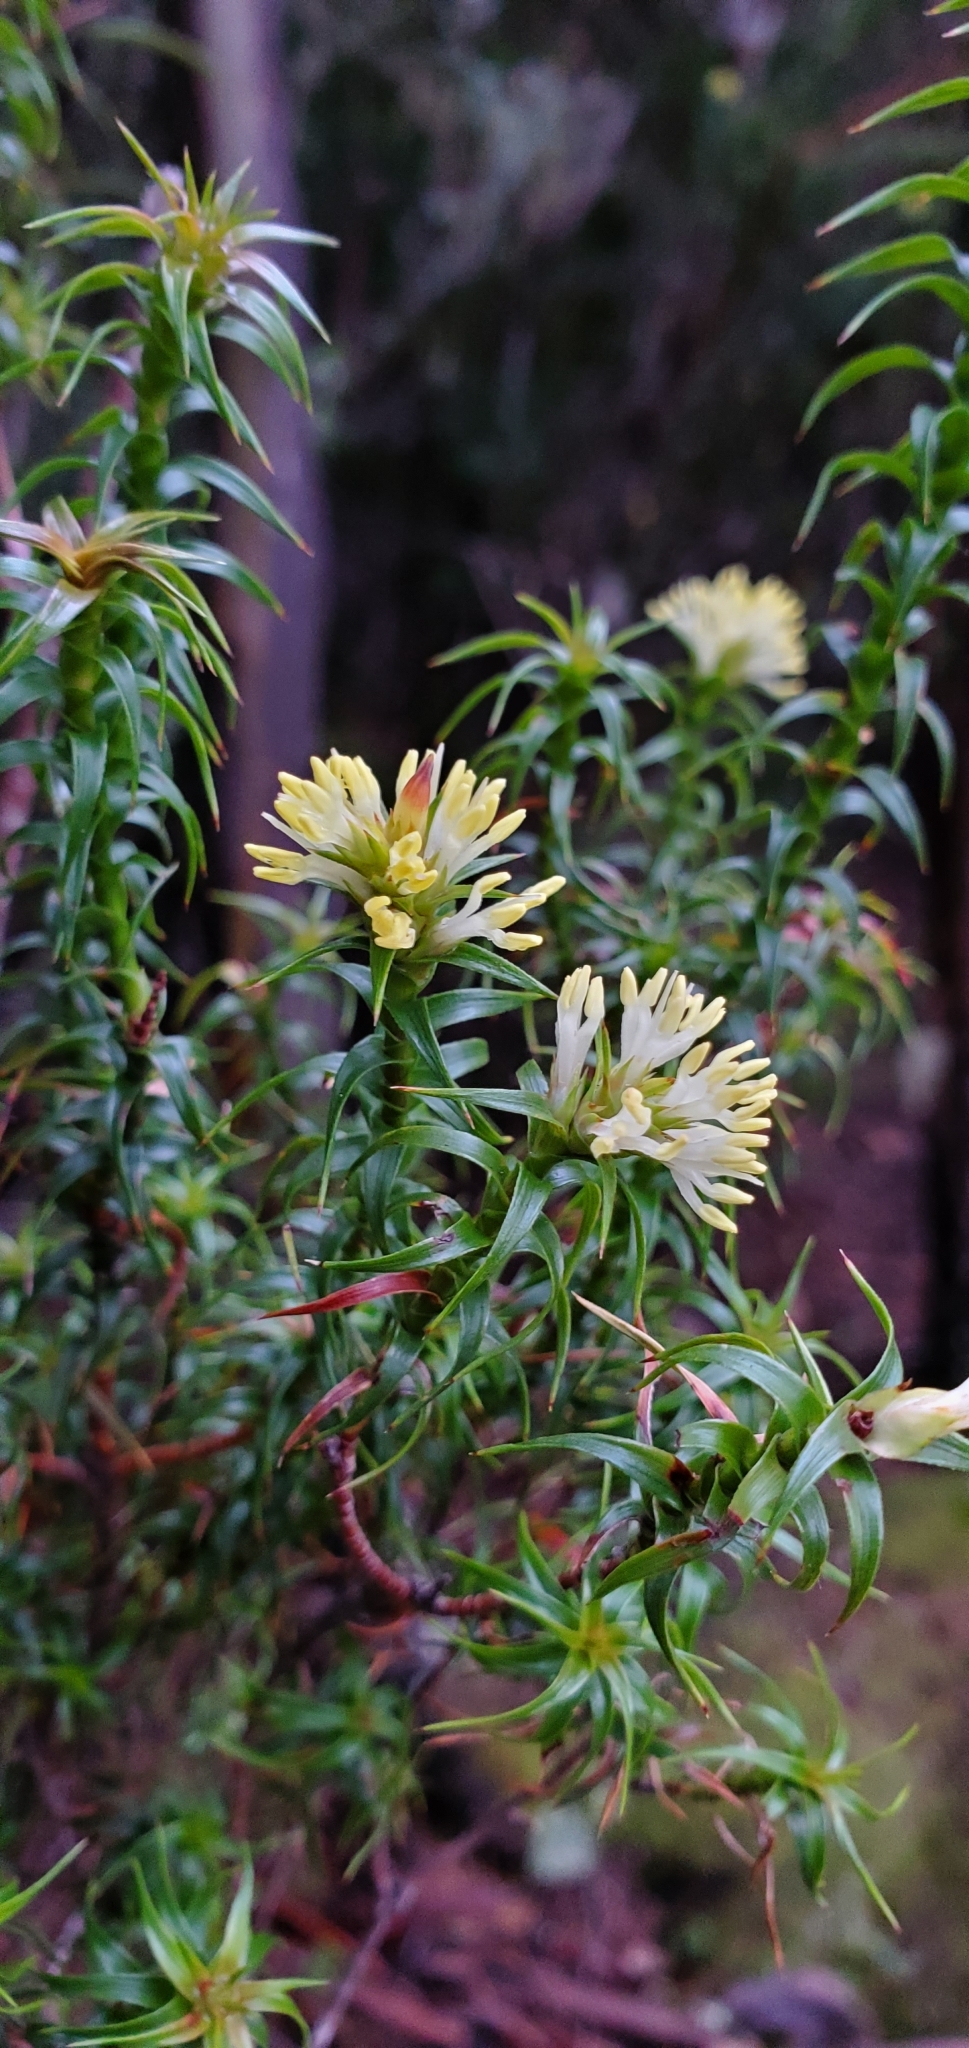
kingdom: Plantae
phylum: Tracheophyta
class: Magnoliopsida
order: Ericales
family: Ericaceae
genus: Dracophyllum
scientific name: Dracophyllum procerum
